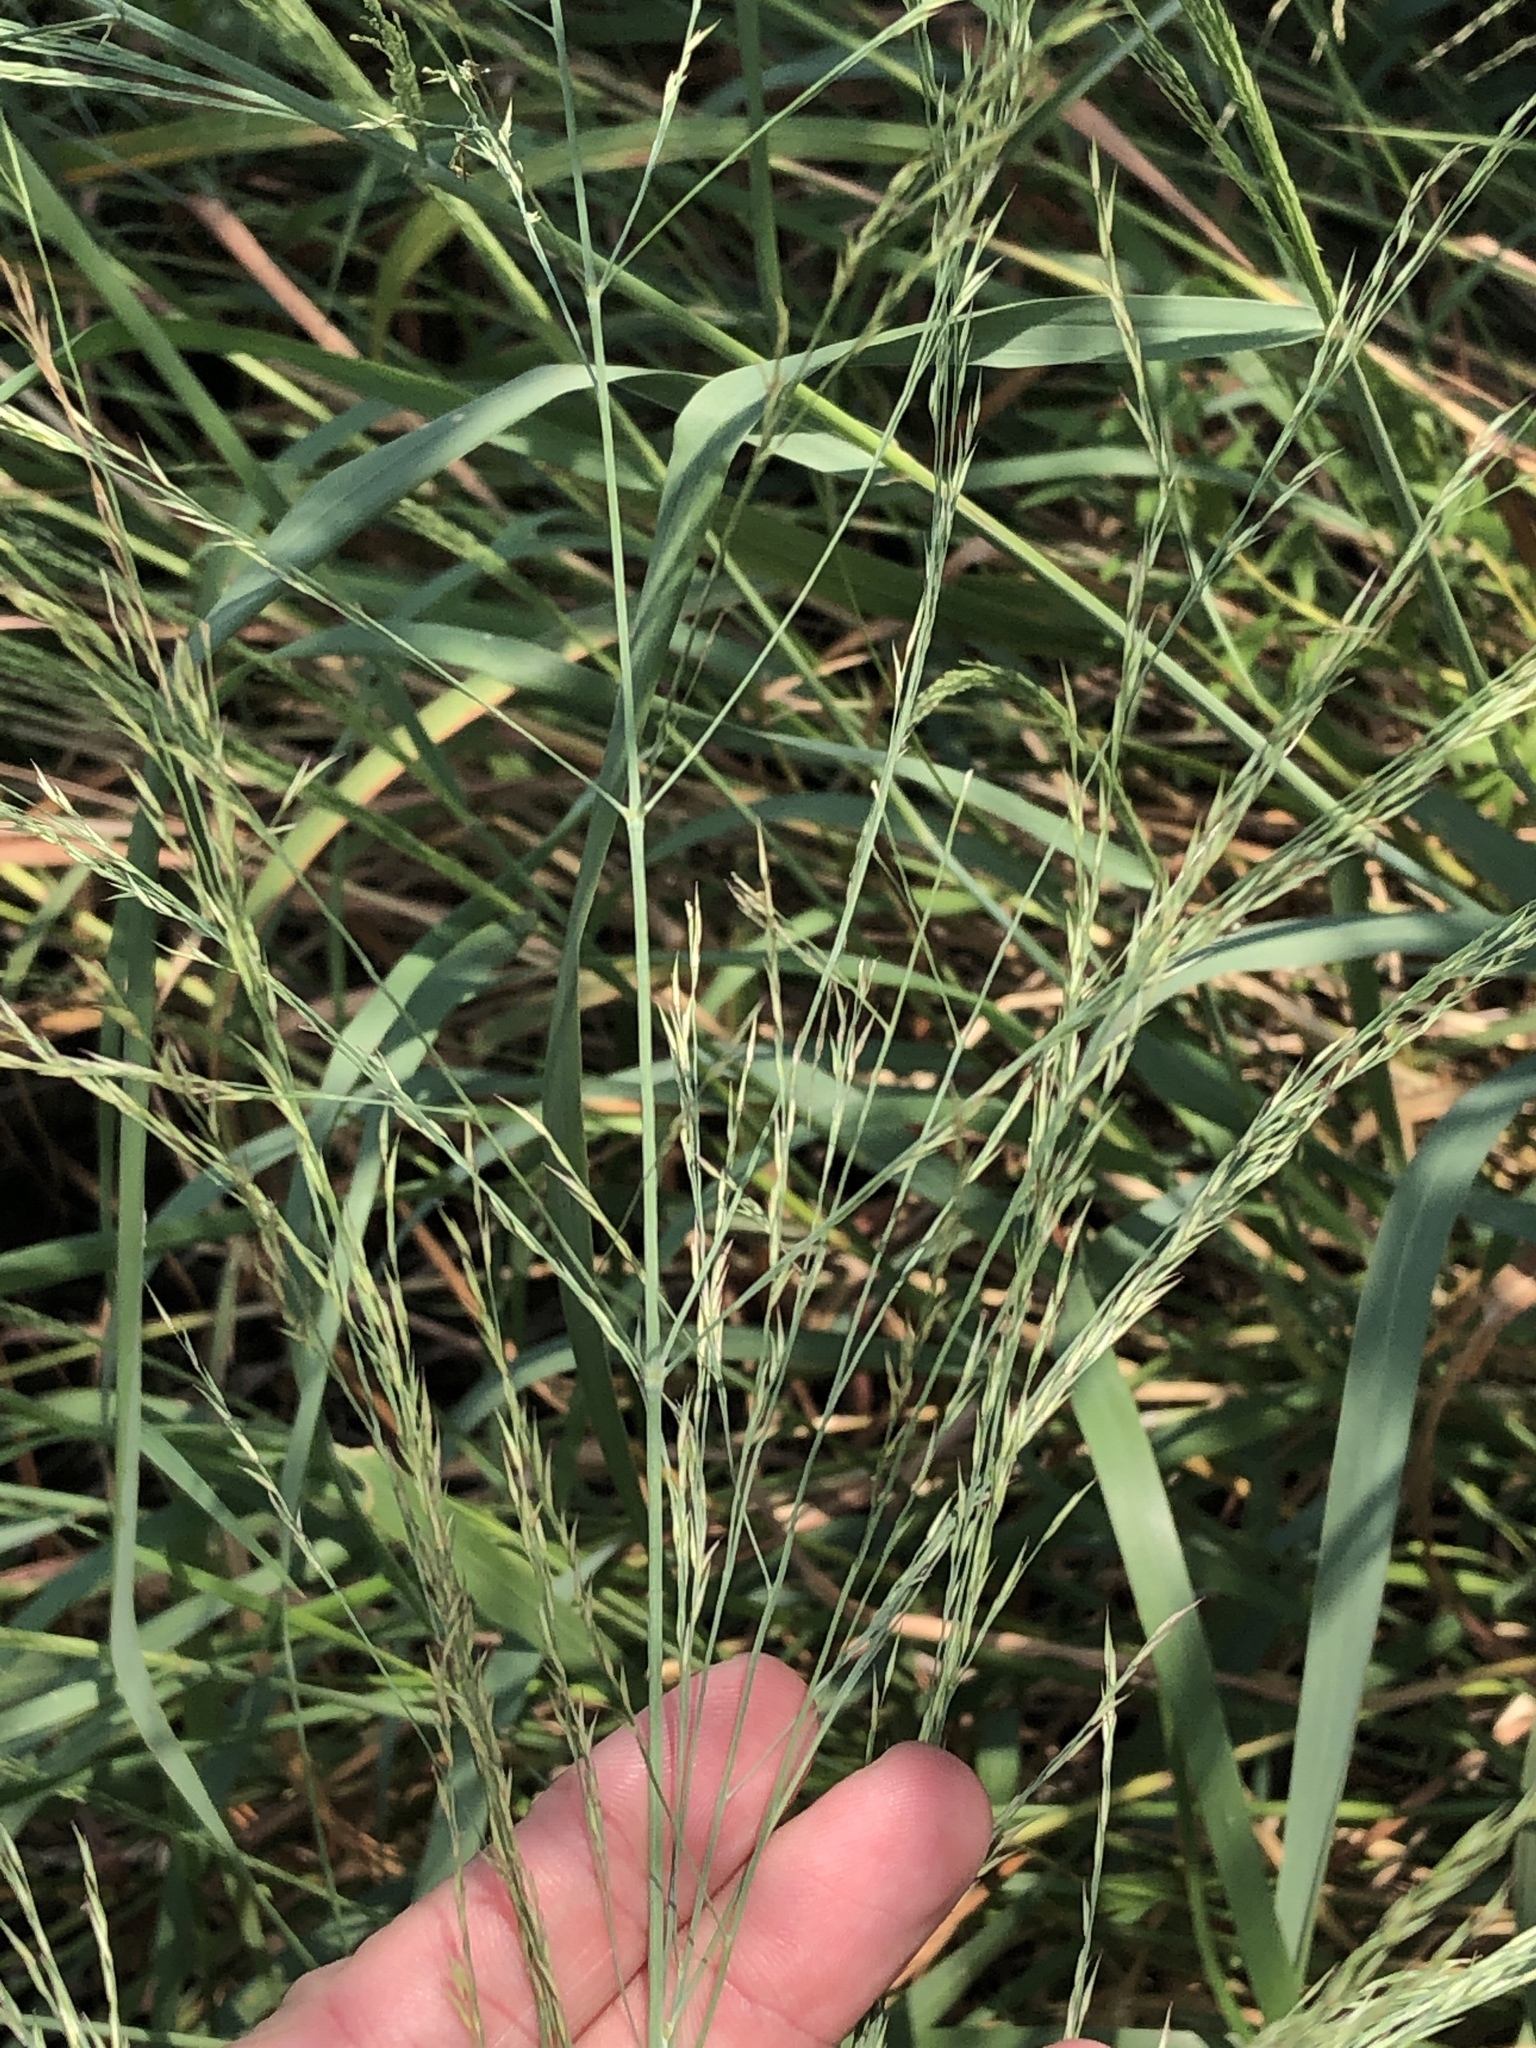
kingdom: Plantae
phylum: Tracheophyta
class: Liliopsida
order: Poales
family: Poaceae
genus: Panicum
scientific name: Panicum virgatum
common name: Switchgrass
